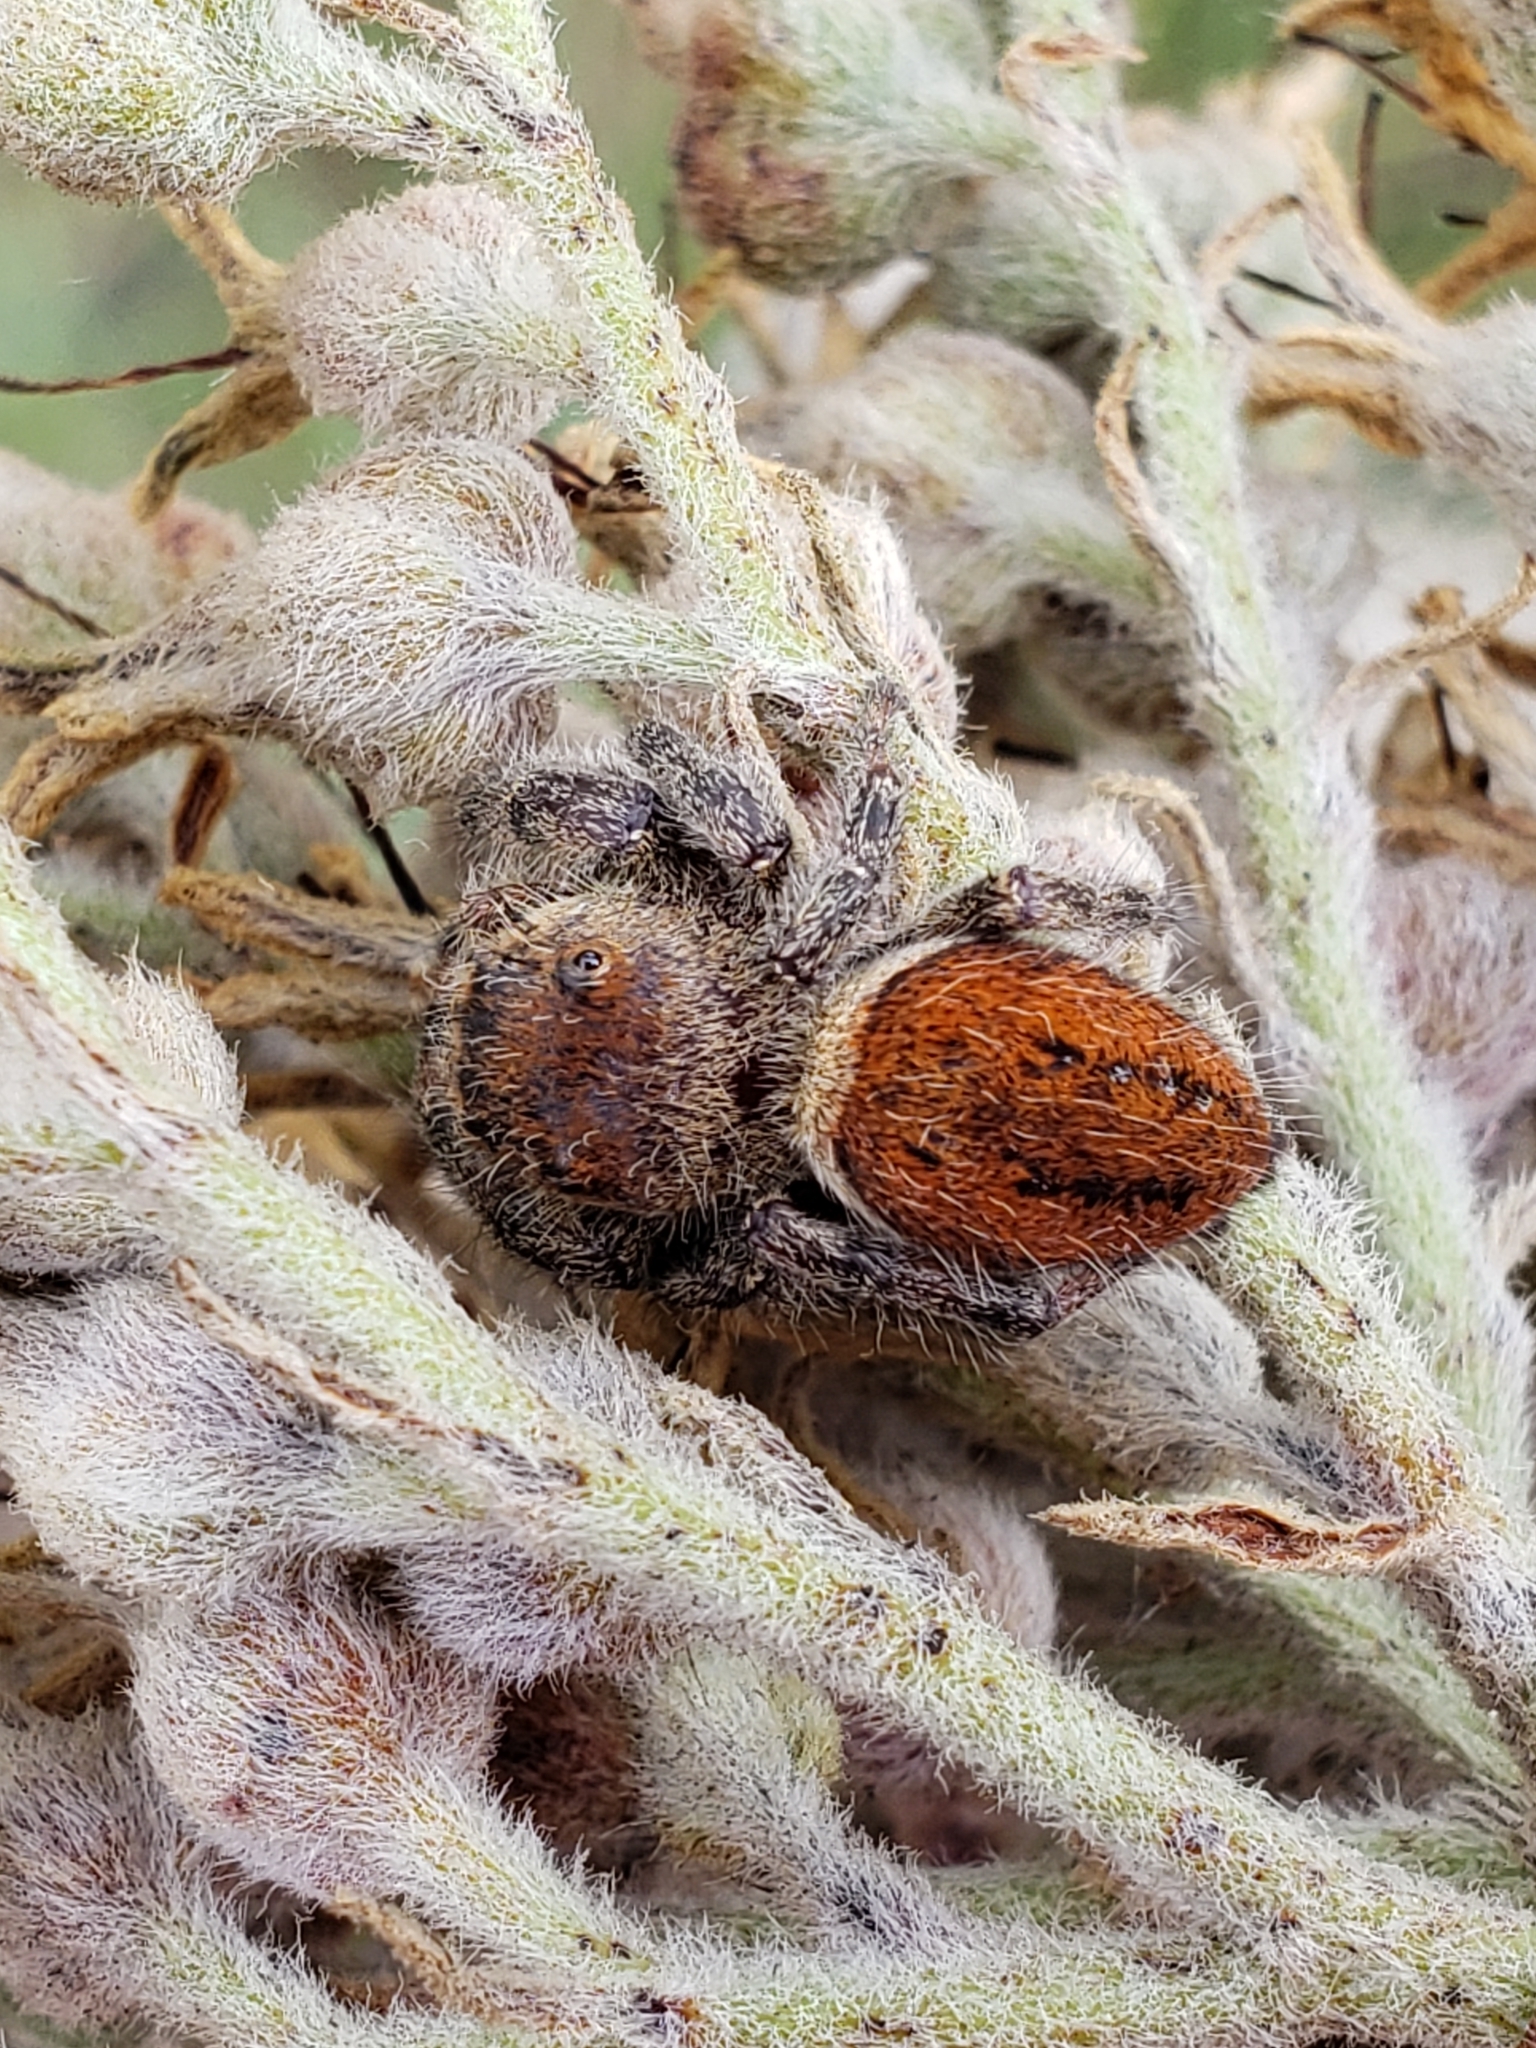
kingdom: Animalia
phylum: Arthropoda
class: Arachnida
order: Araneae
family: Salticidae
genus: Phidippus
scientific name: Phidippus clarus
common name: Brilliant jumping spider
